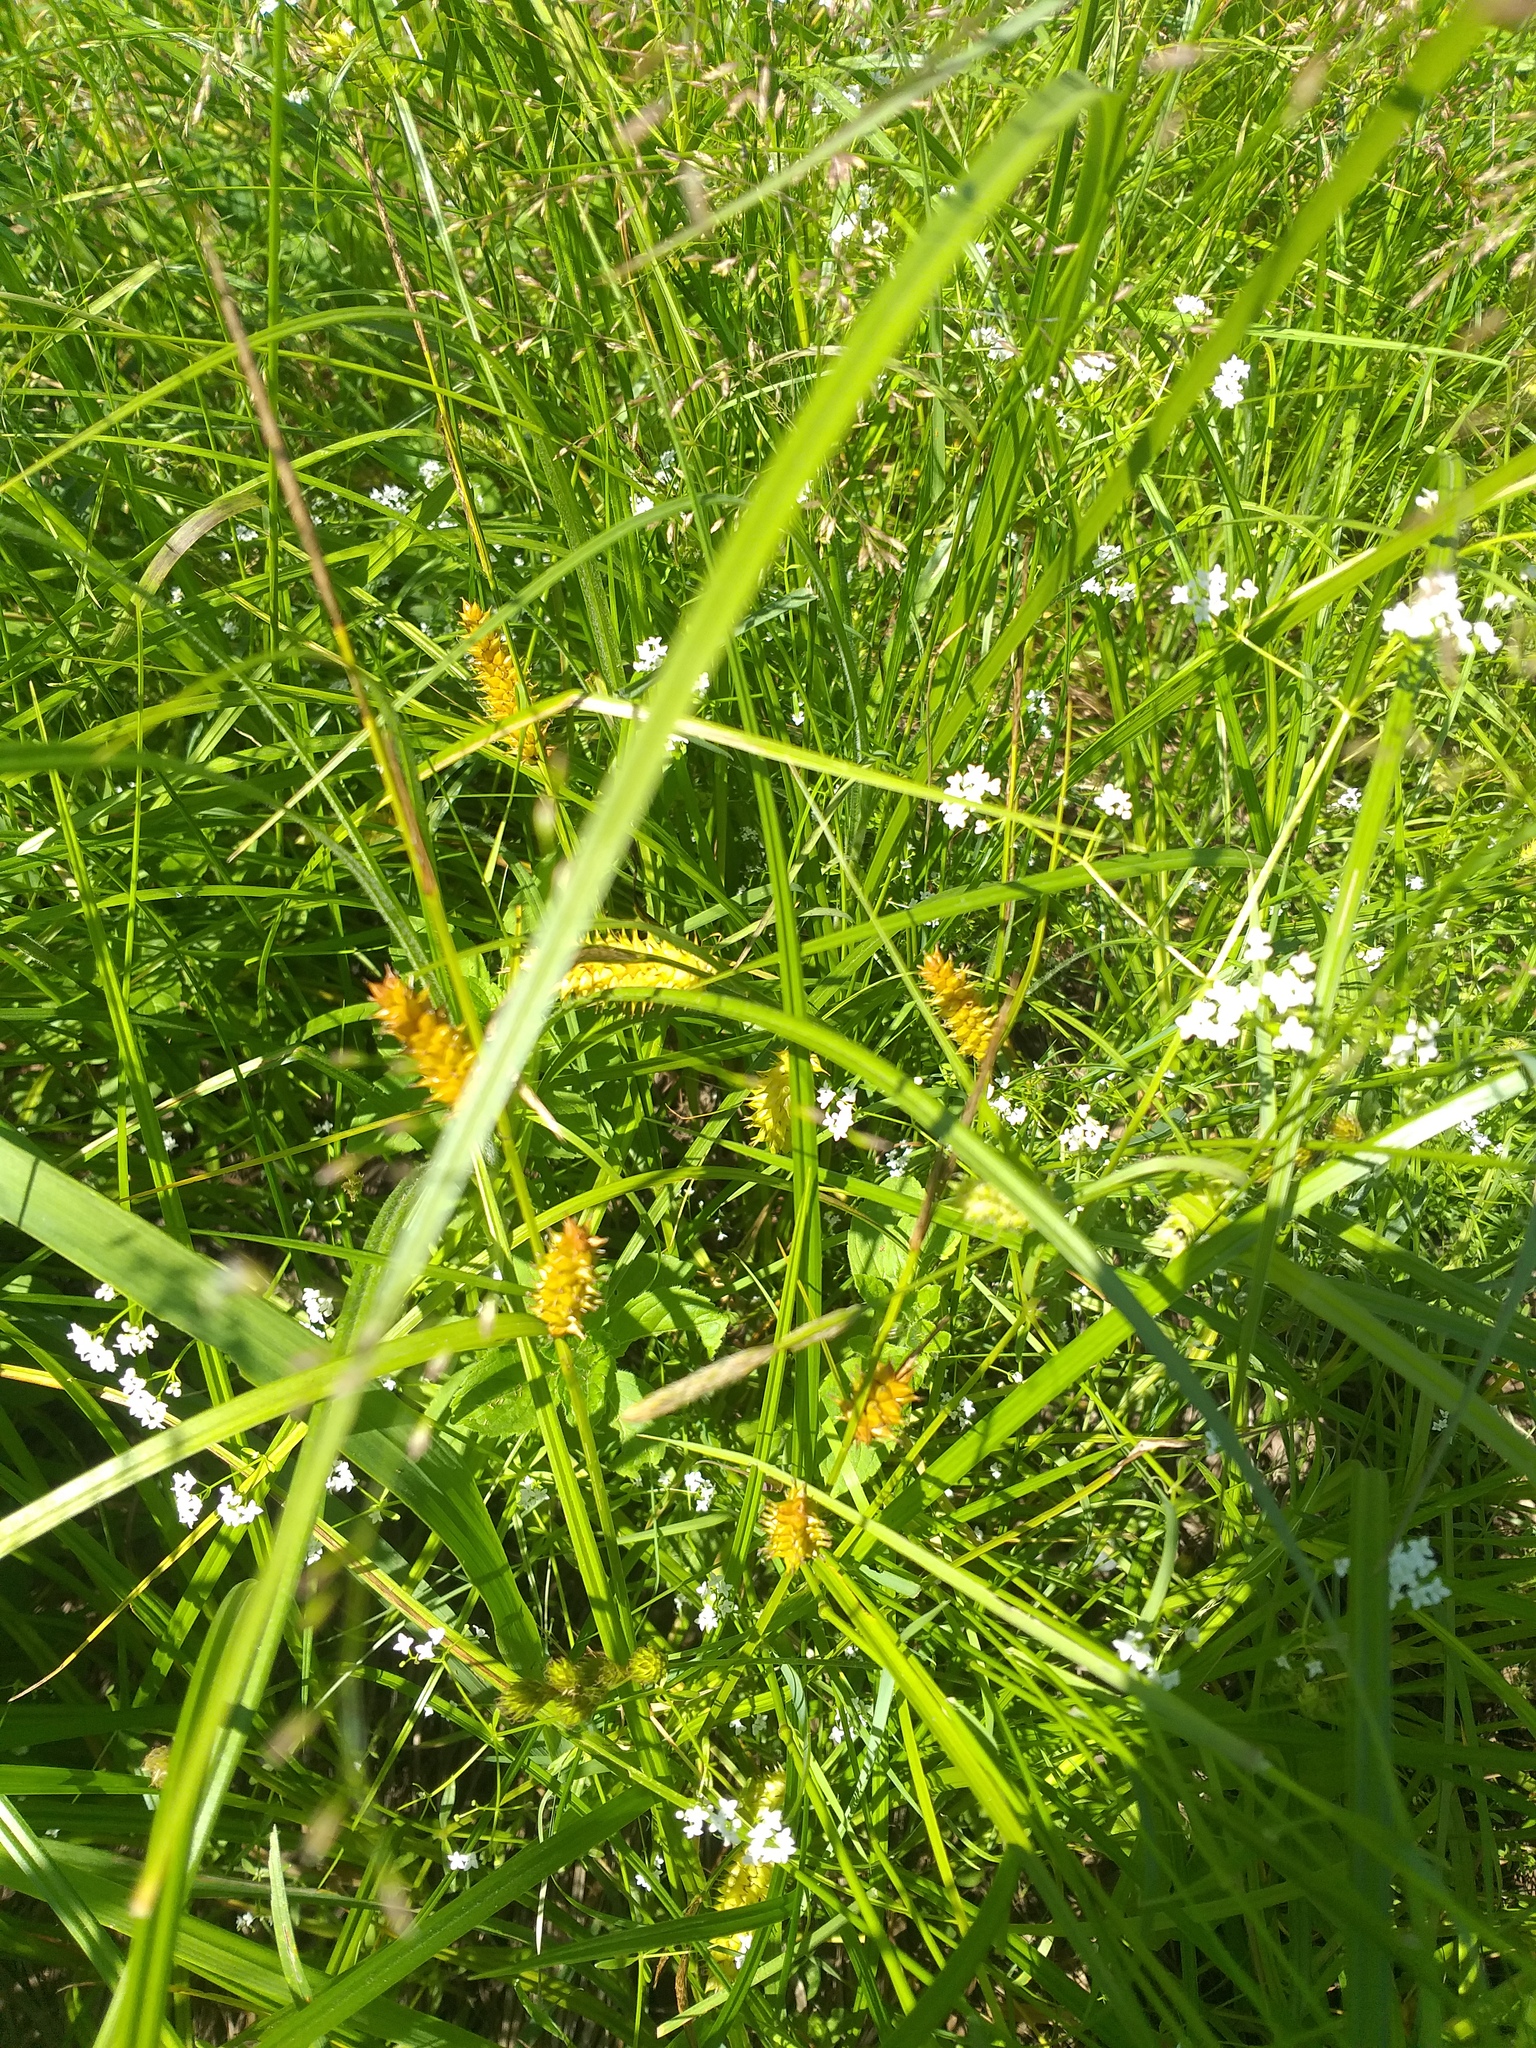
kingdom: Plantae
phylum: Tracheophyta
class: Liliopsida
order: Poales
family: Cyperaceae
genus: Carex
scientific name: Carex vesicaria
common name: Bladder-sedge
